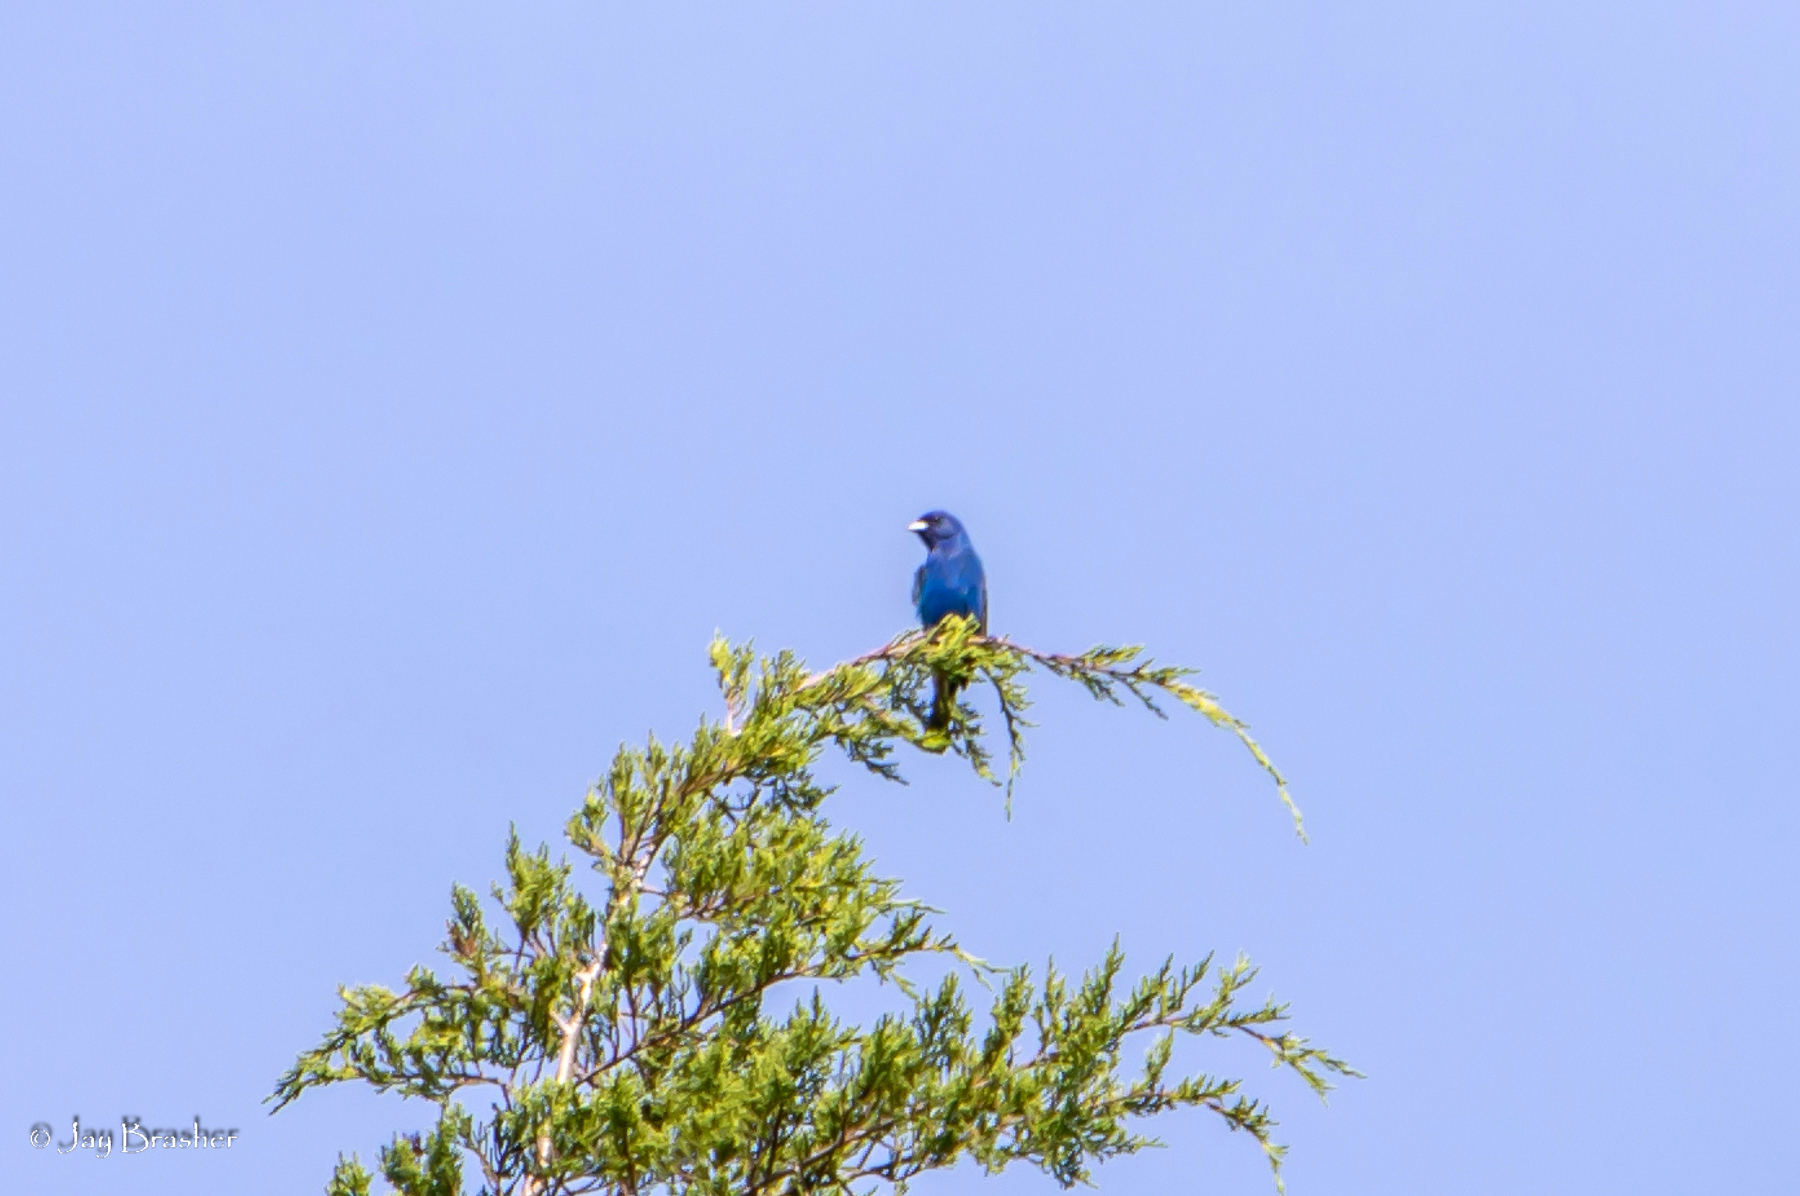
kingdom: Animalia
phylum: Chordata
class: Aves
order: Passeriformes
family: Cardinalidae
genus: Passerina
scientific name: Passerina cyanea
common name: Indigo bunting
